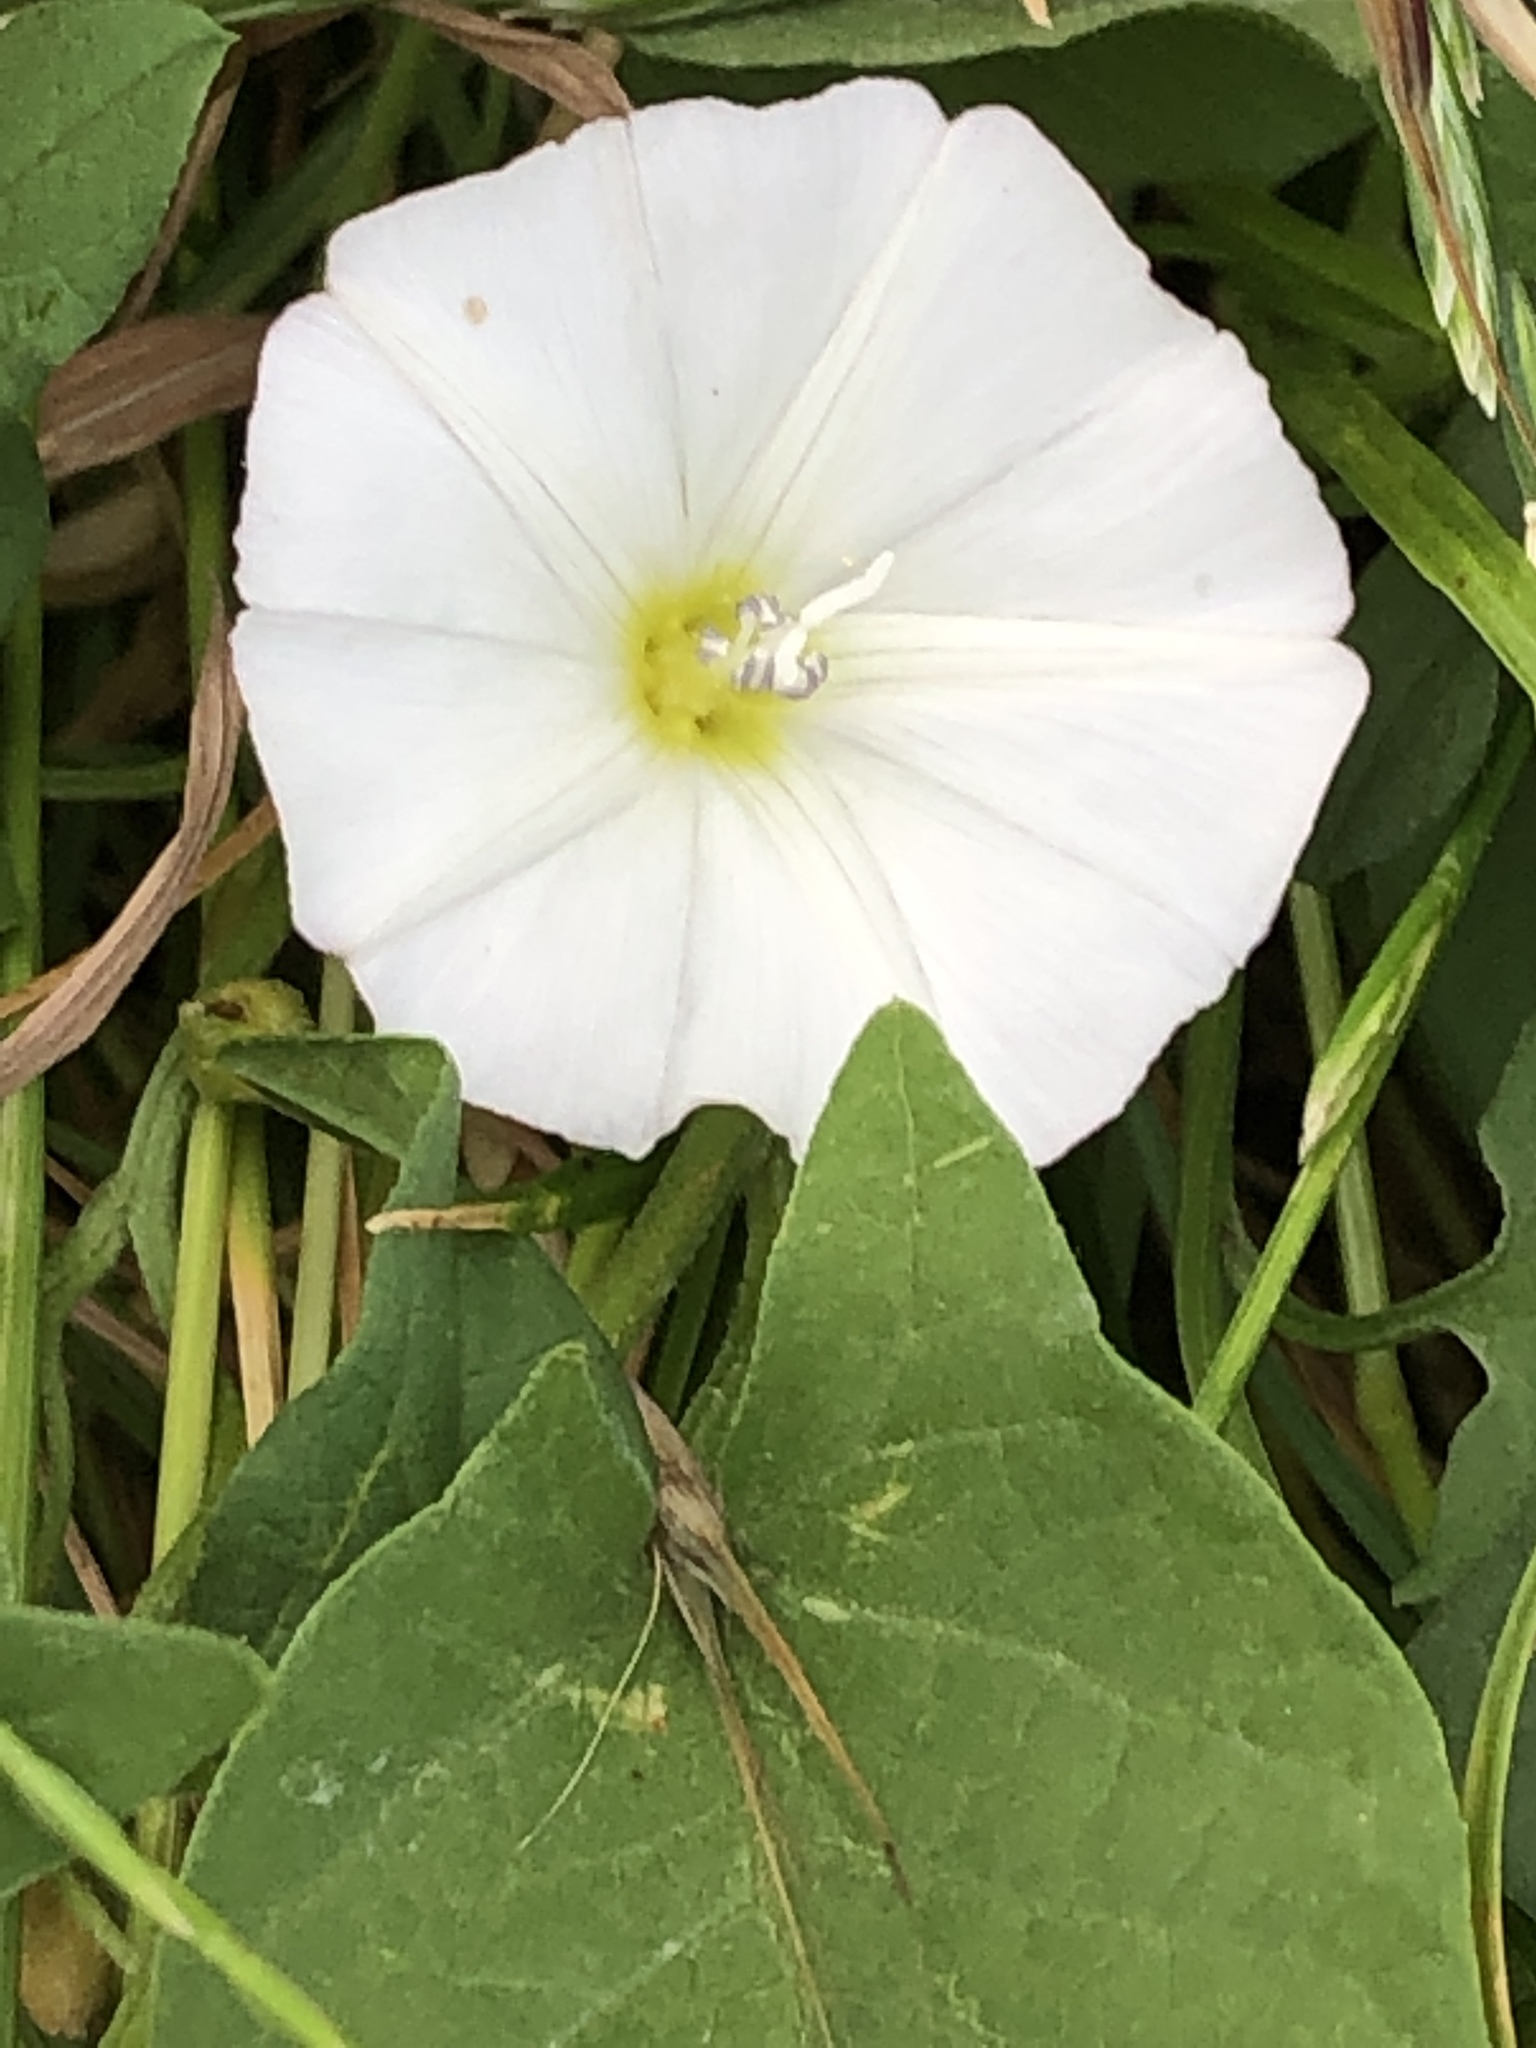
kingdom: Plantae
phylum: Tracheophyta
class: Magnoliopsida
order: Solanales
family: Convolvulaceae
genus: Convolvulus
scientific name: Convolvulus arvensis
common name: Field bindweed
